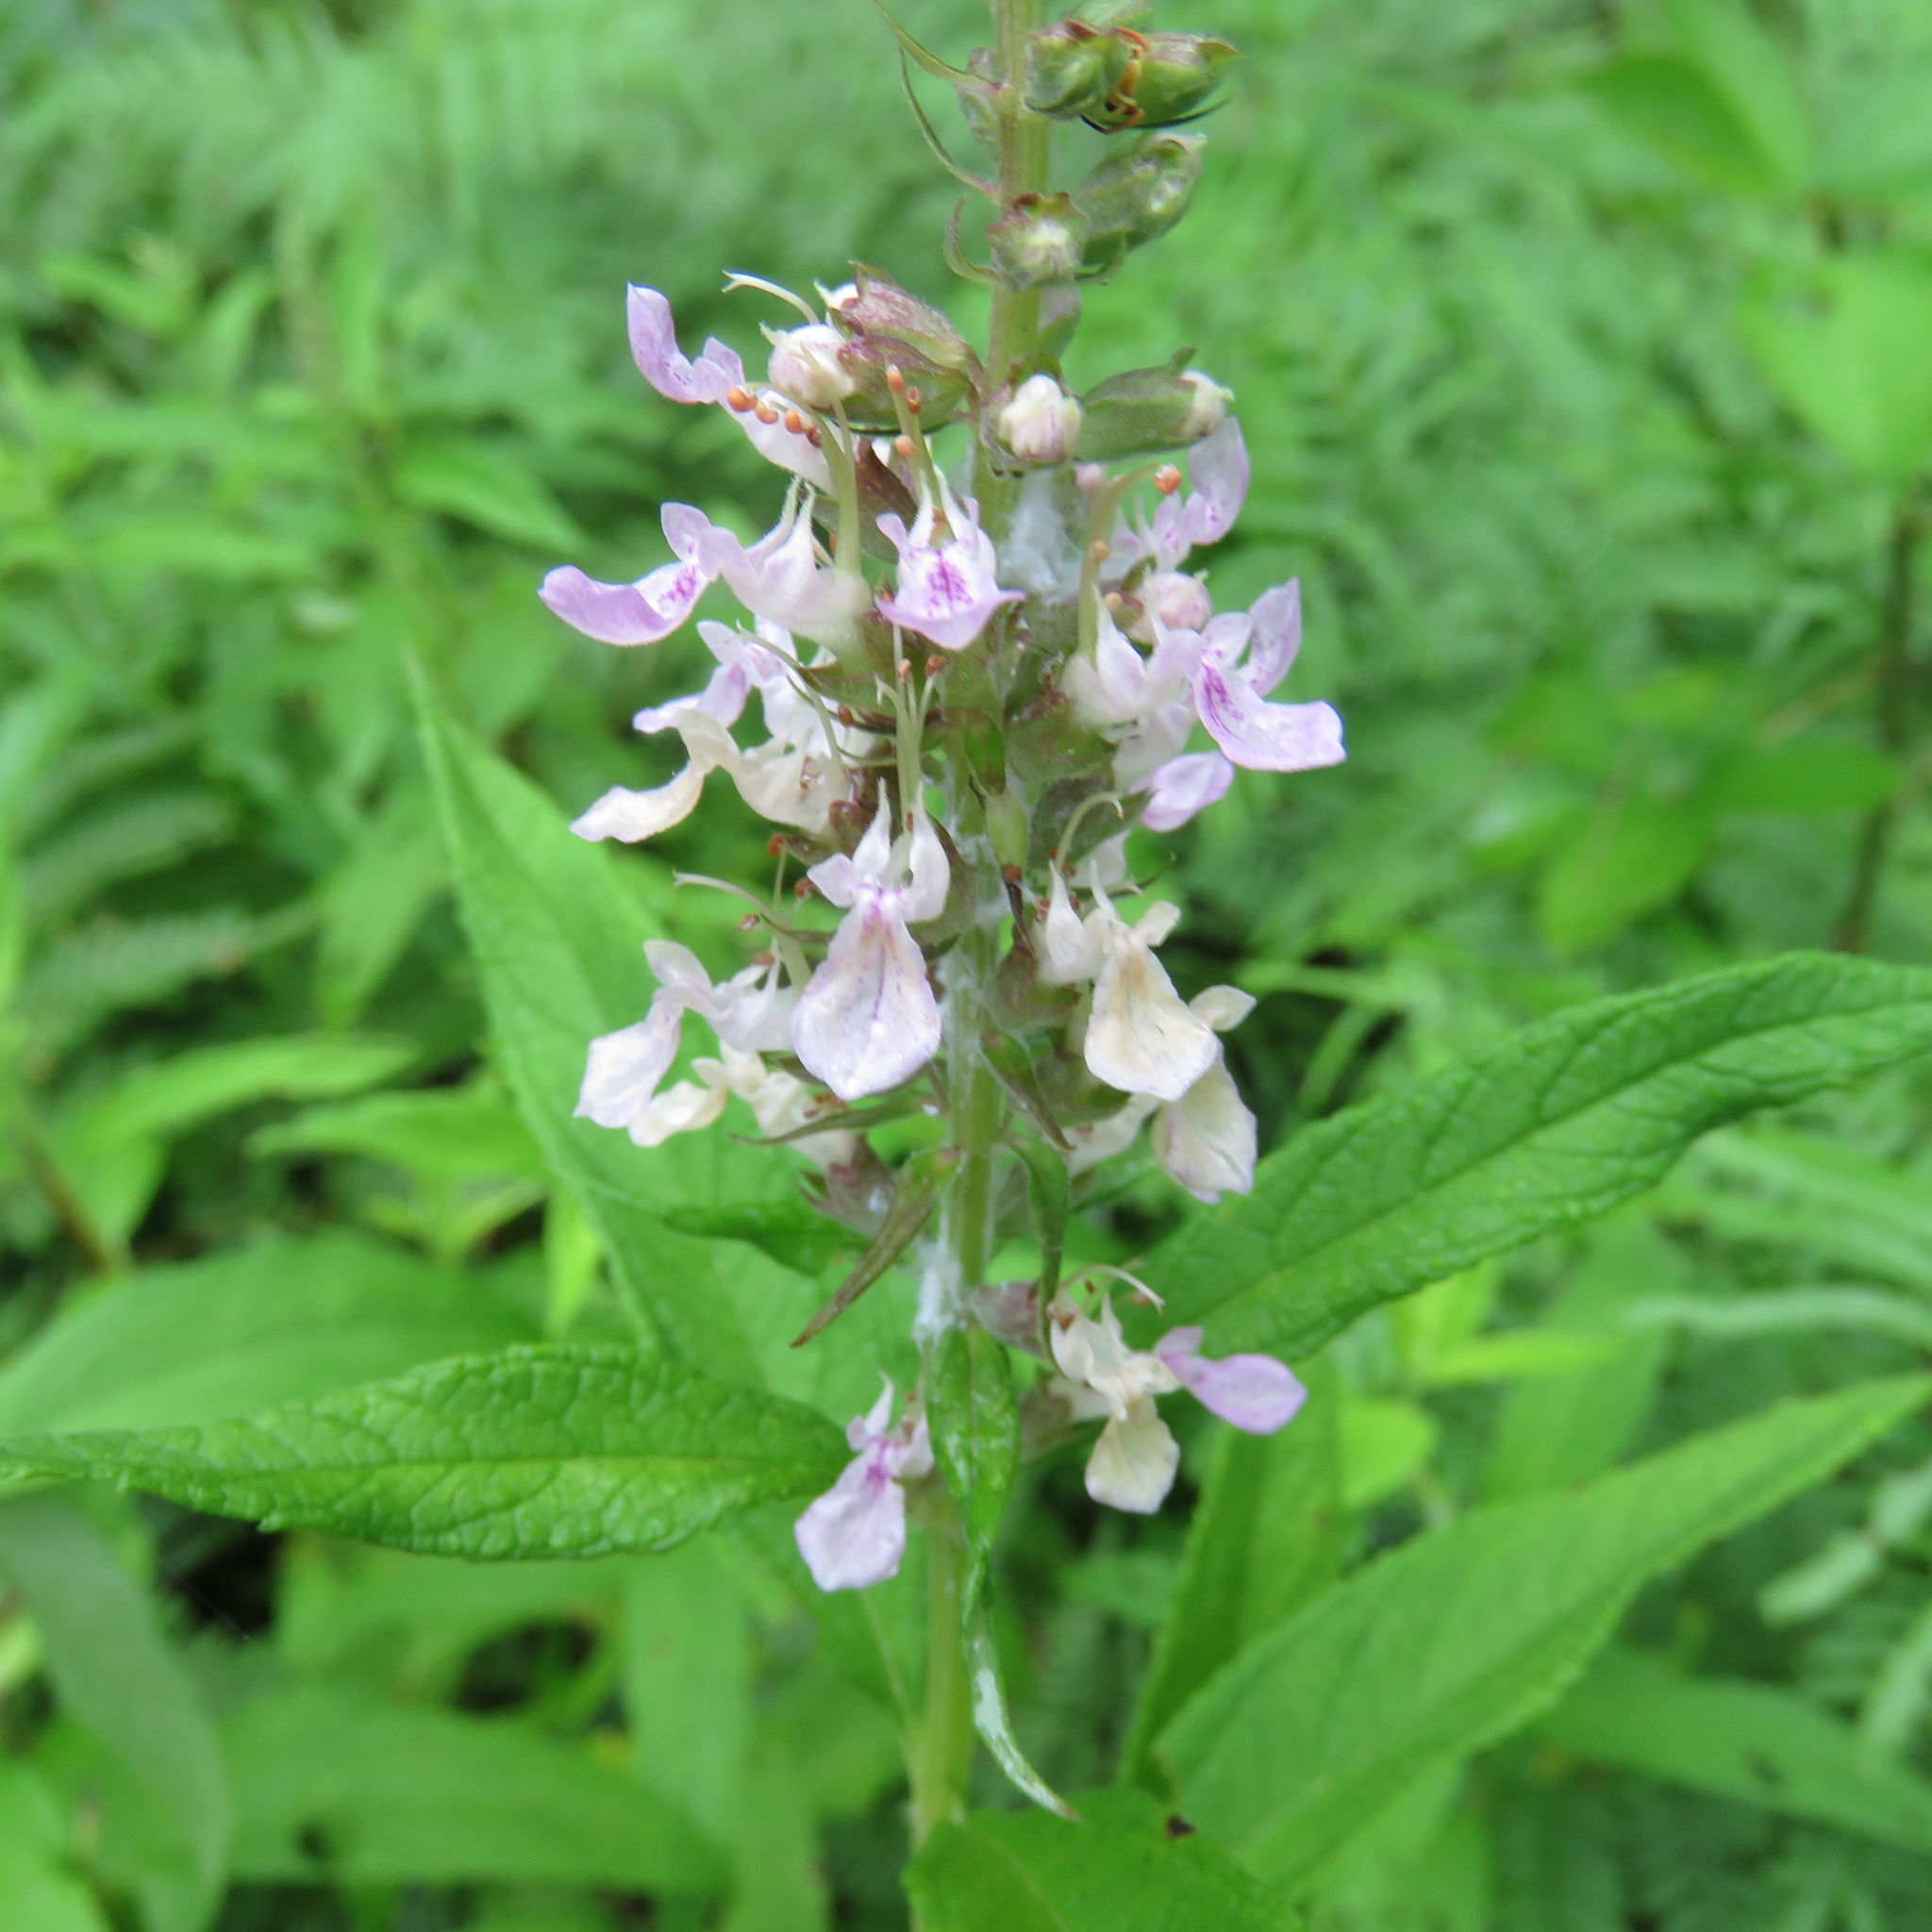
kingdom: Plantae
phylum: Tracheophyta
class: Magnoliopsida
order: Lamiales
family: Lamiaceae
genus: Teucrium
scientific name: Teucrium canadense
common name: American germander
